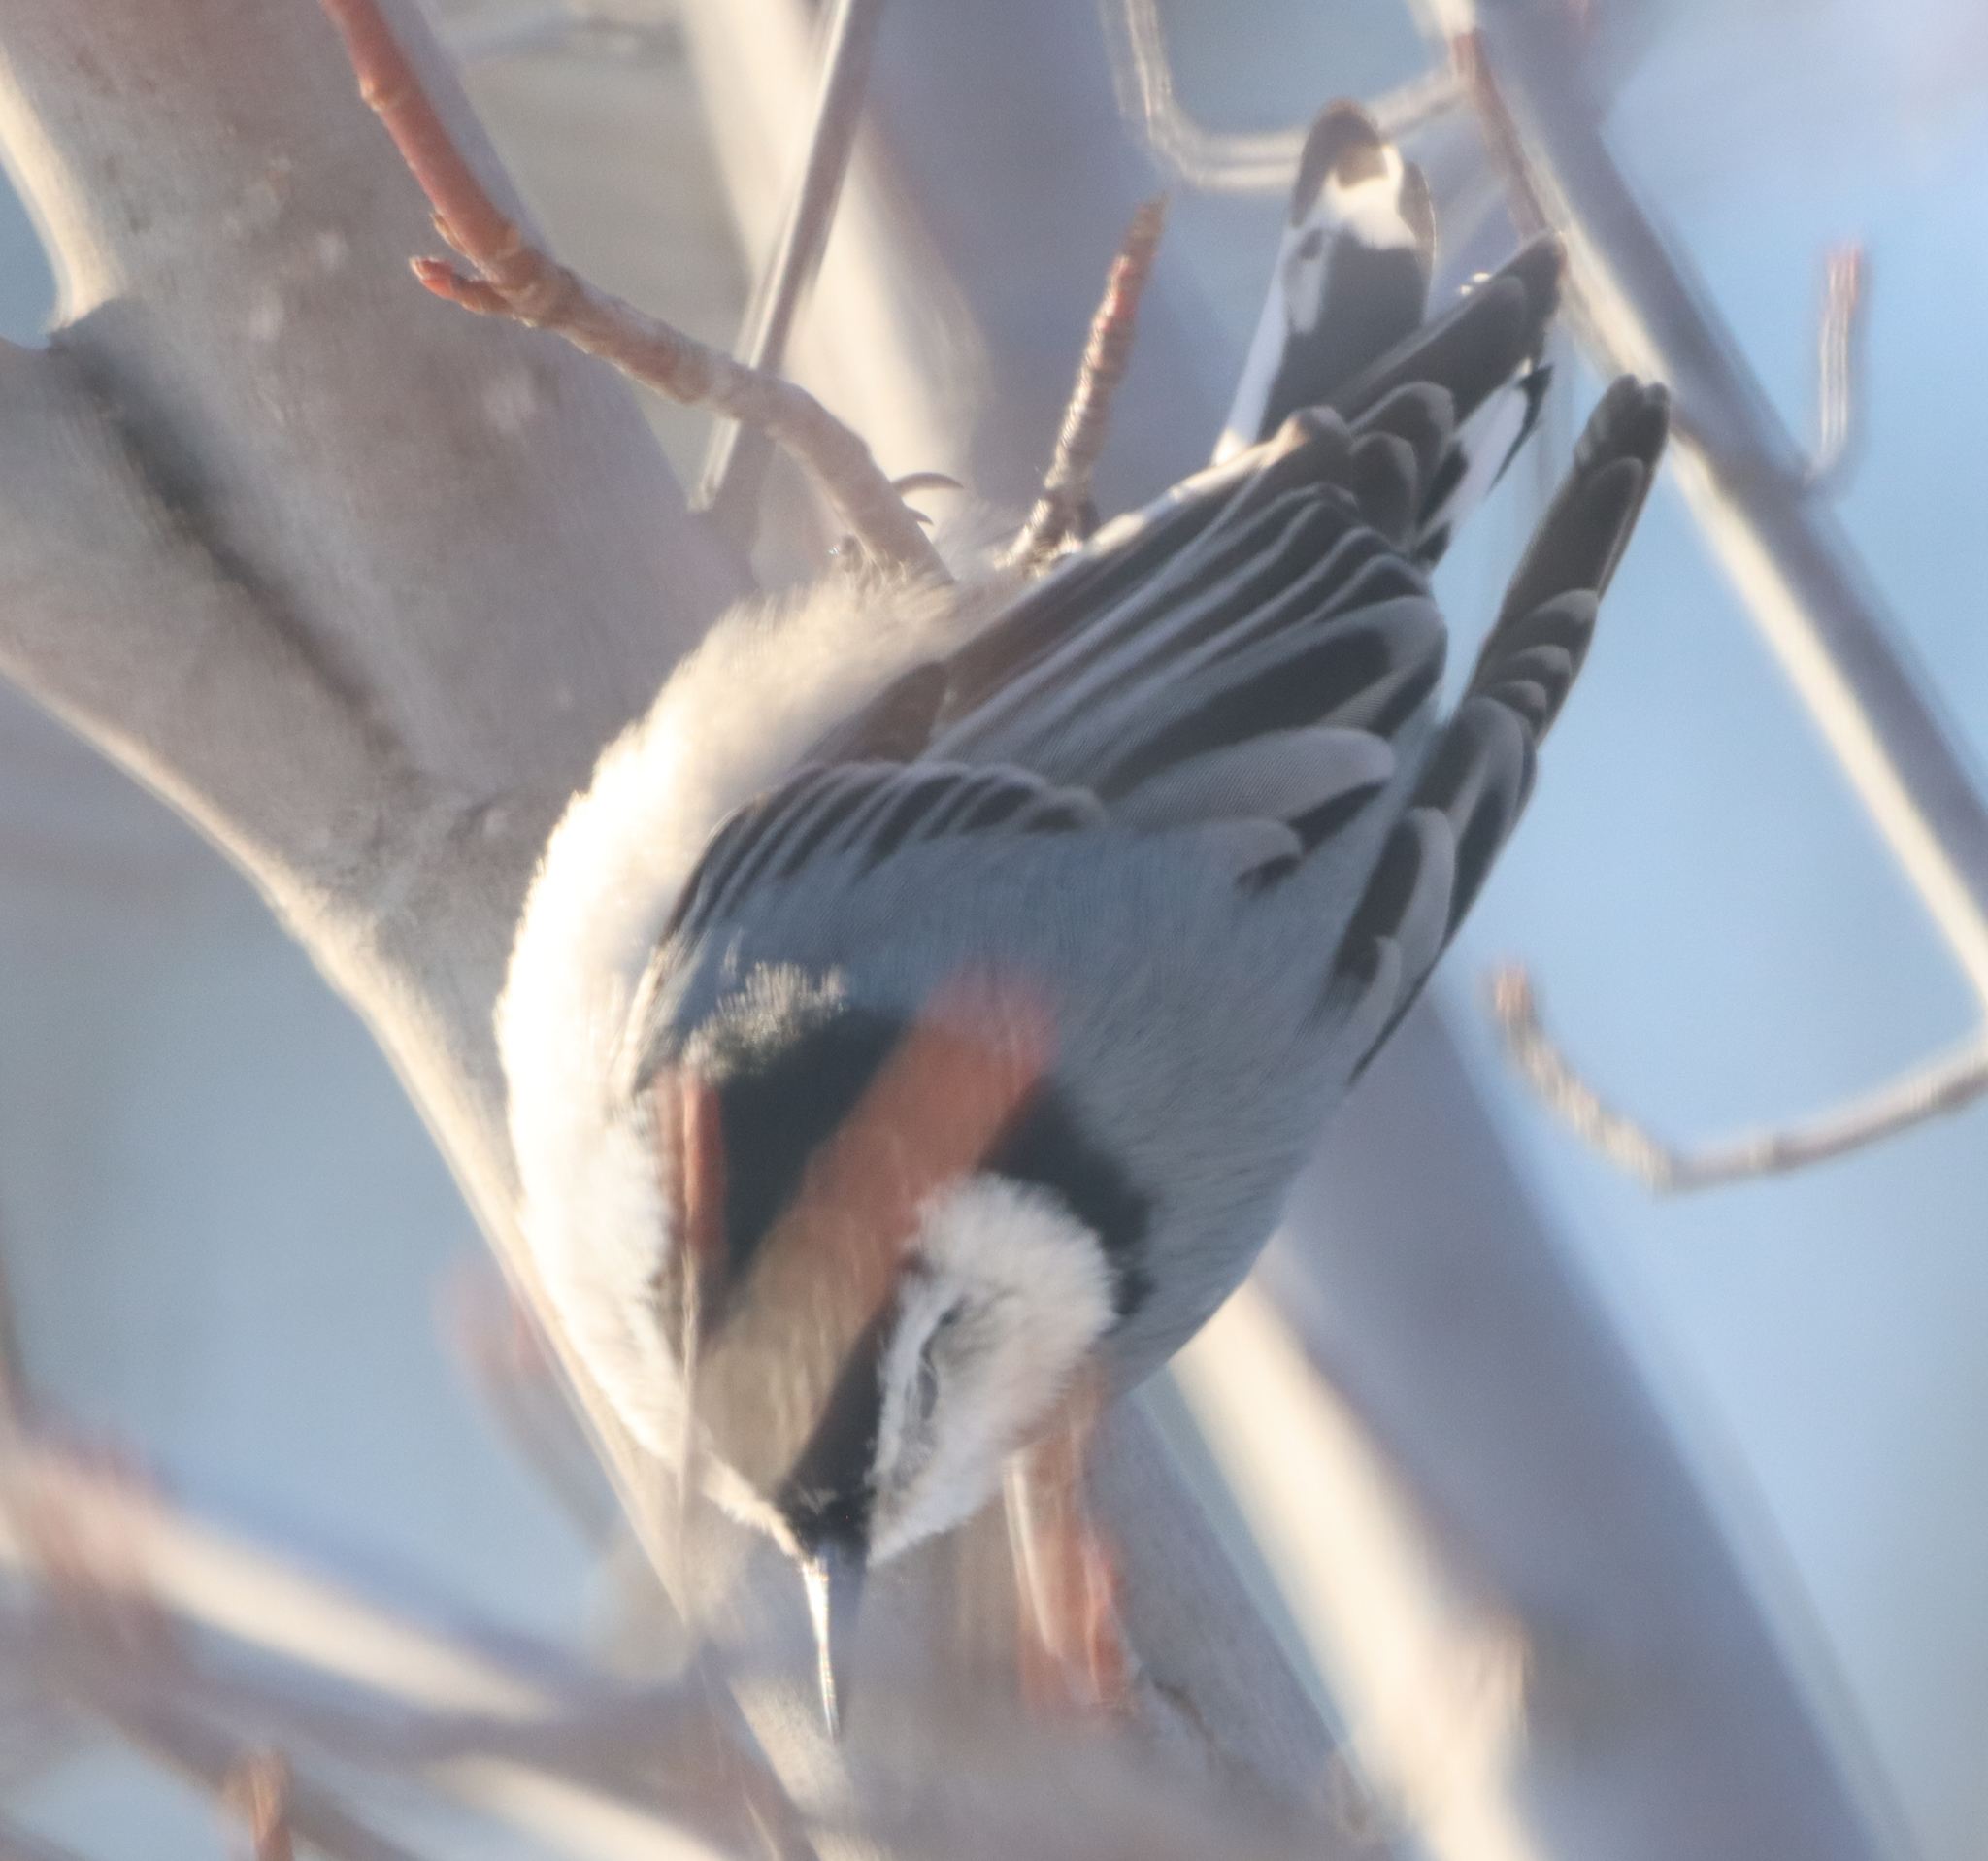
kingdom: Animalia
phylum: Chordata
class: Aves
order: Passeriformes
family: Sittidae
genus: Sitta
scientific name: Sitta carolinensis
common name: White-breasted nuthatch
